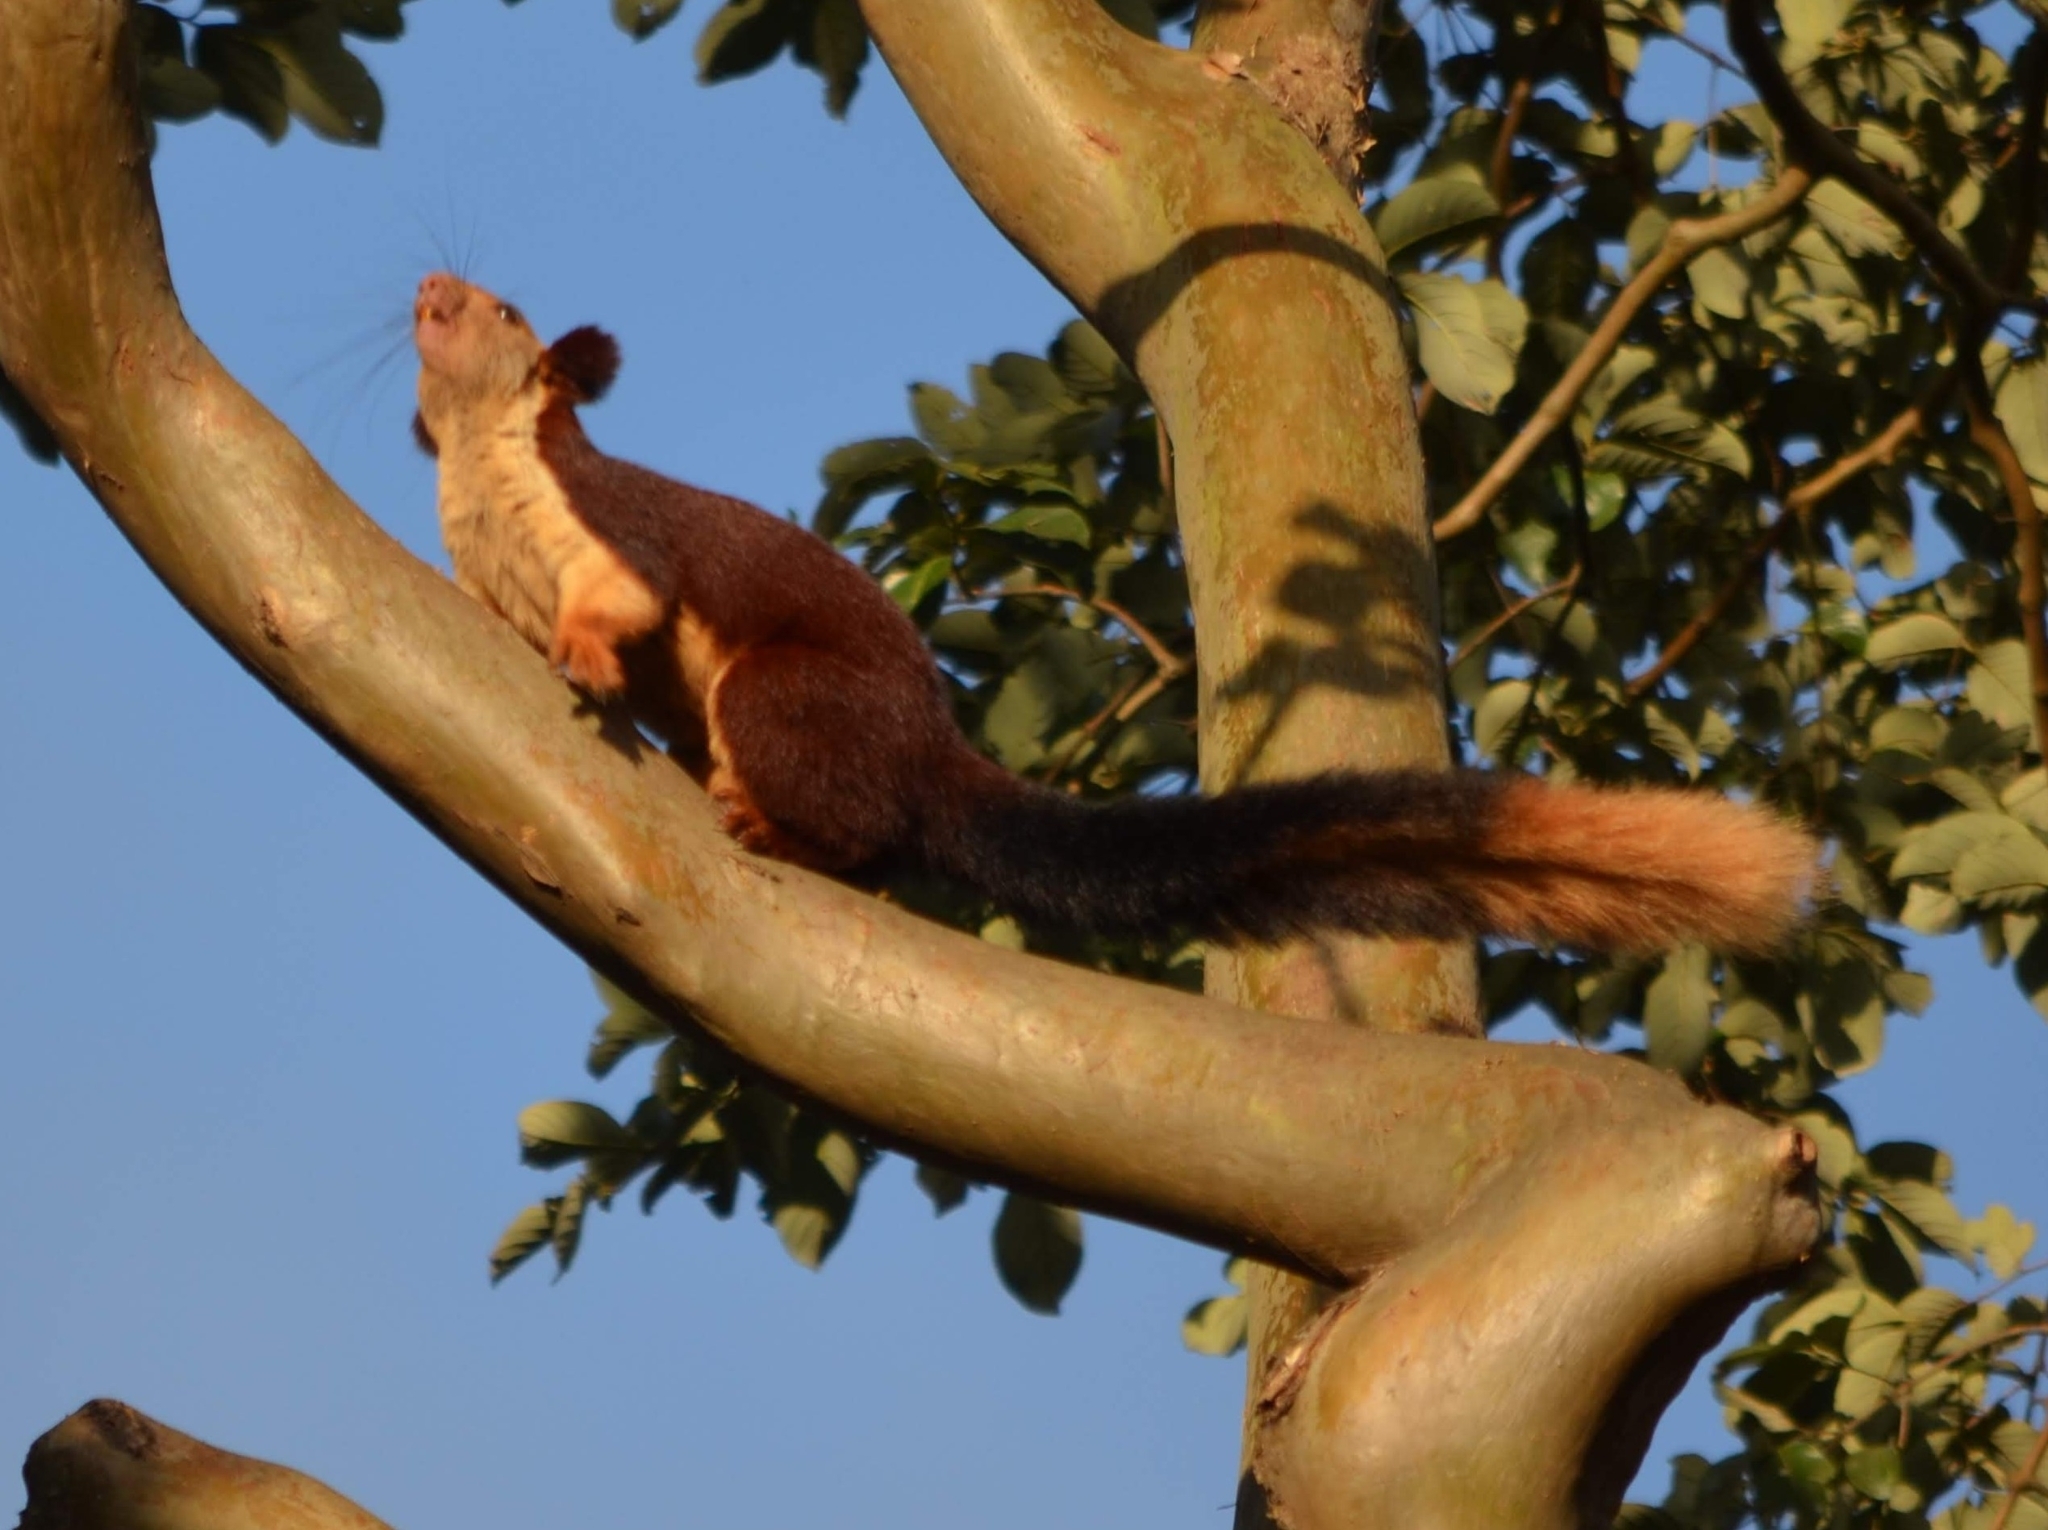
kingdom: Animalia
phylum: Chordata
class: Mammalia
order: Rodentia
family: Sciuridae
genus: Ratufa
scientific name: Ratufa indica
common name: Indian giant squirrel
